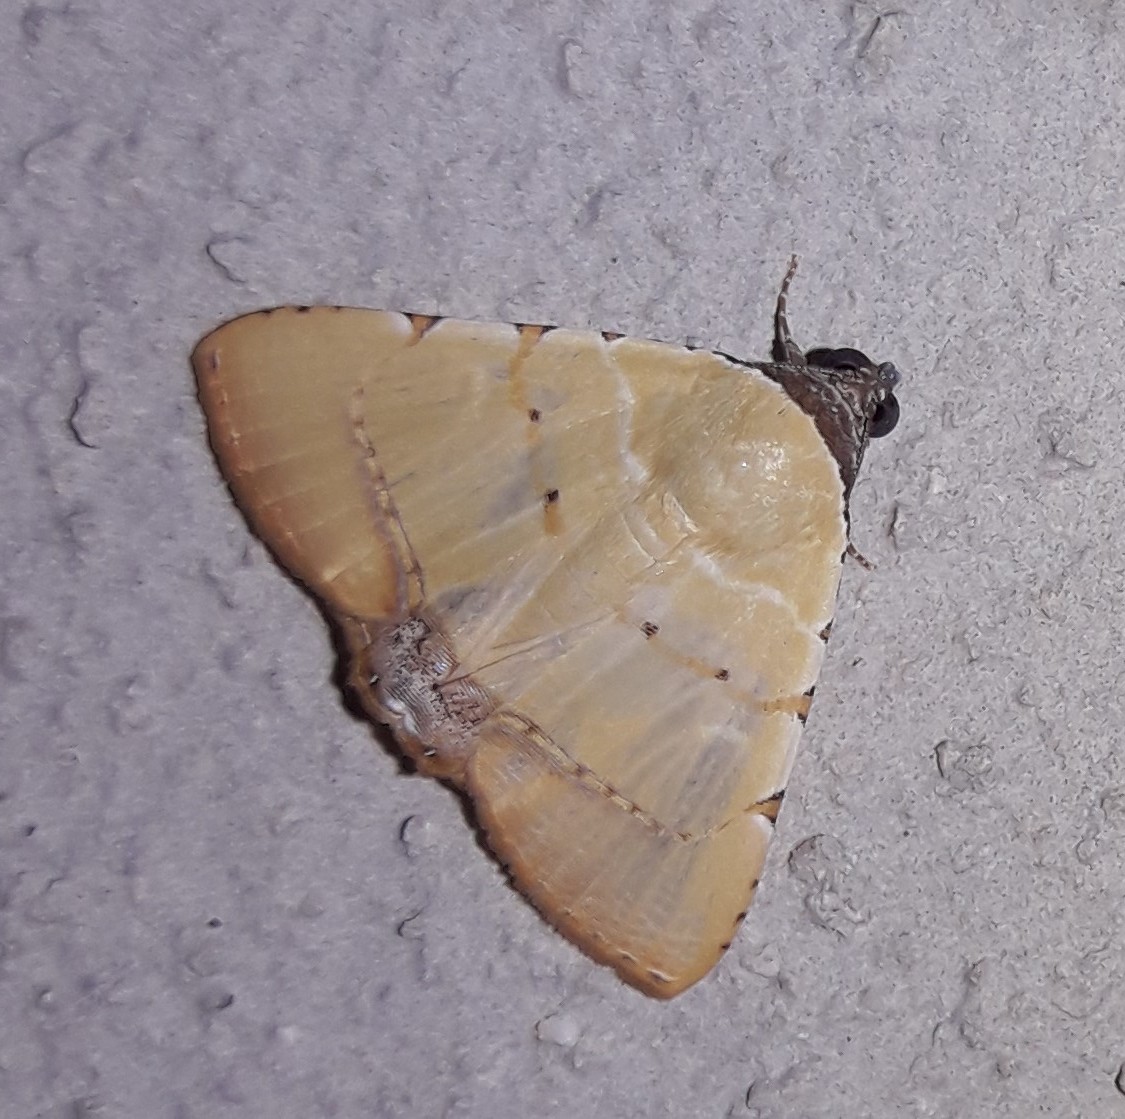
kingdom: Animalia
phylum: Arthropoda
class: Insecta
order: Lepidoptera
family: Erebidae
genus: Eulepidotis
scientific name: Eulepidotis micca
